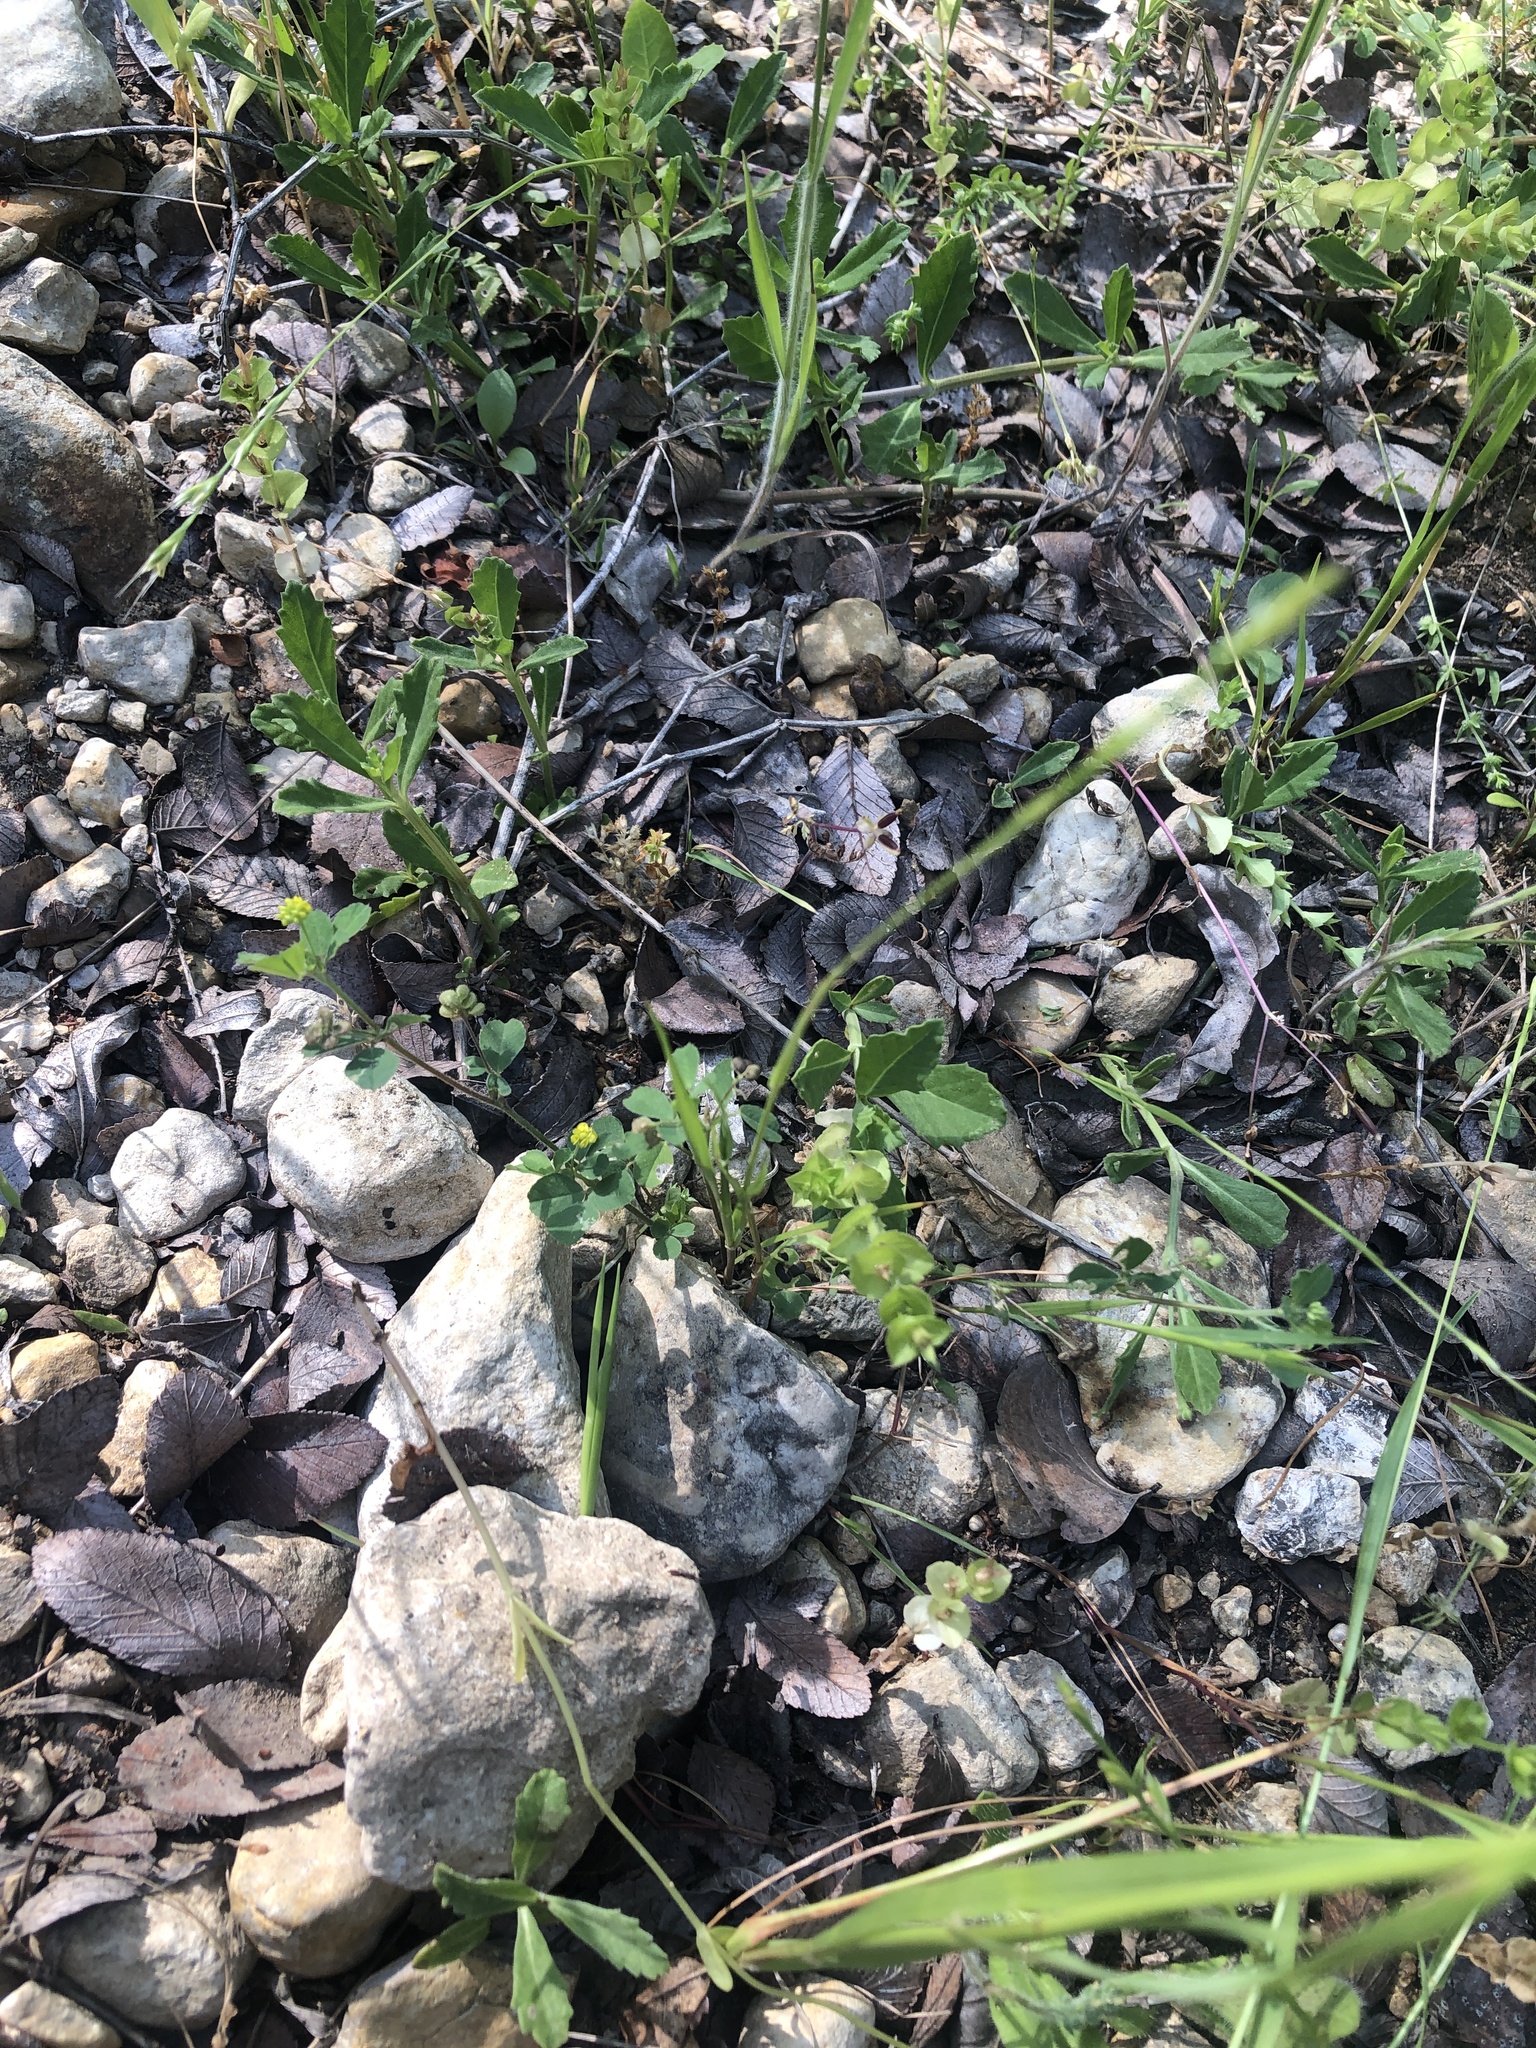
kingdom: Plantae
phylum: Tracheophyta
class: Magnoliopsida
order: Fabales
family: Fabaceae
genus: Medicago
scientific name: Medicago lupulina
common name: Black medick
